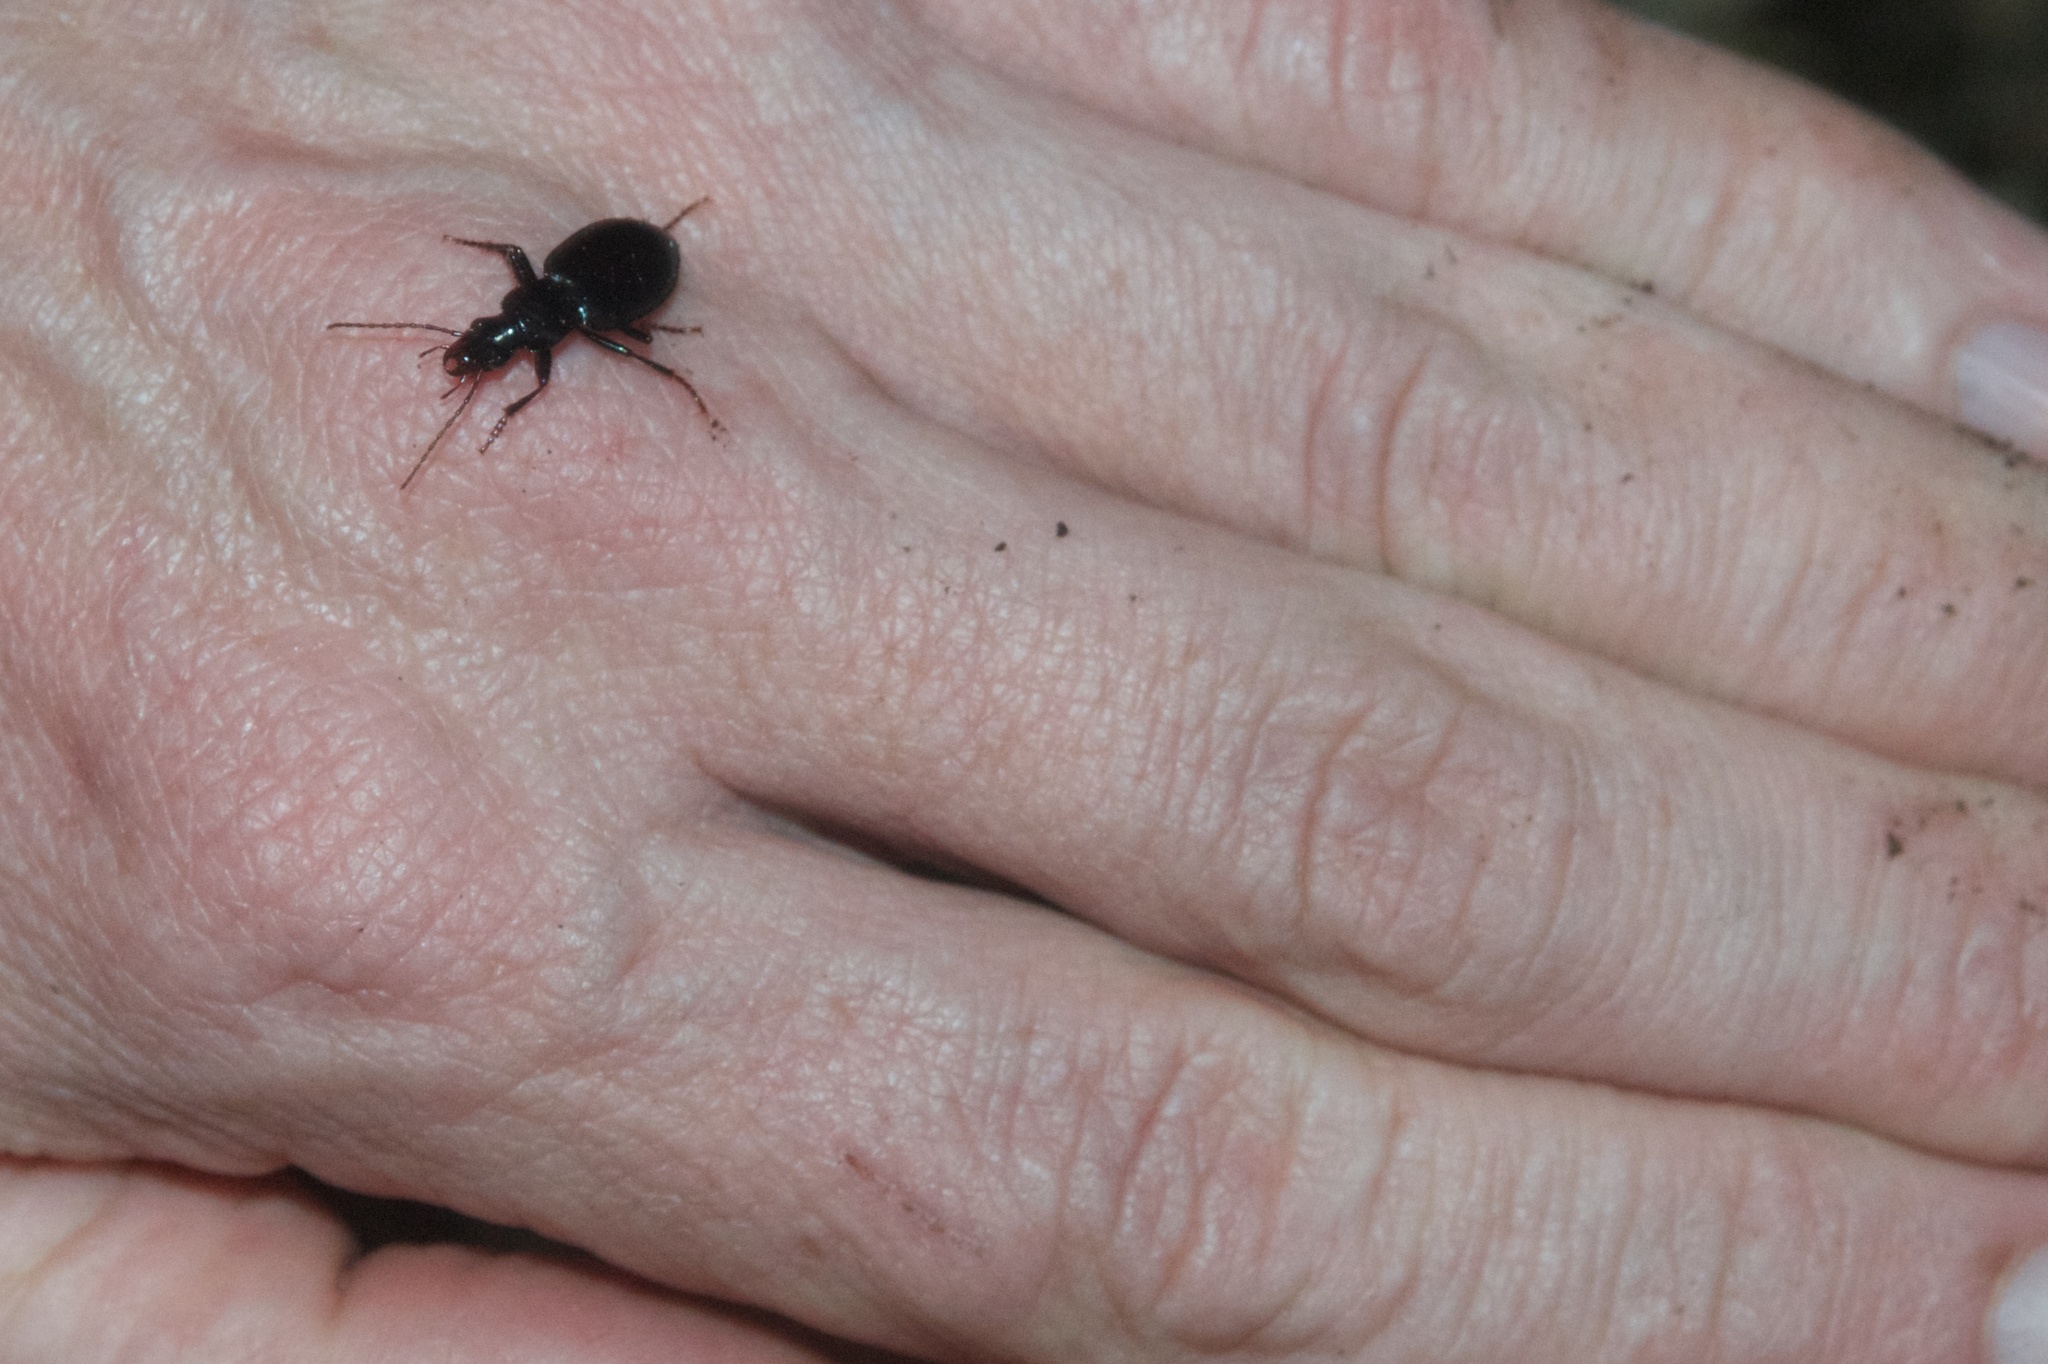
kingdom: Animalia
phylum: Arthropoda
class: Insecta
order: Coleoptera
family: Carabidae
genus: Laemostenus
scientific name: Laemostenus complanatus
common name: Cosmopolitan ground beetle
